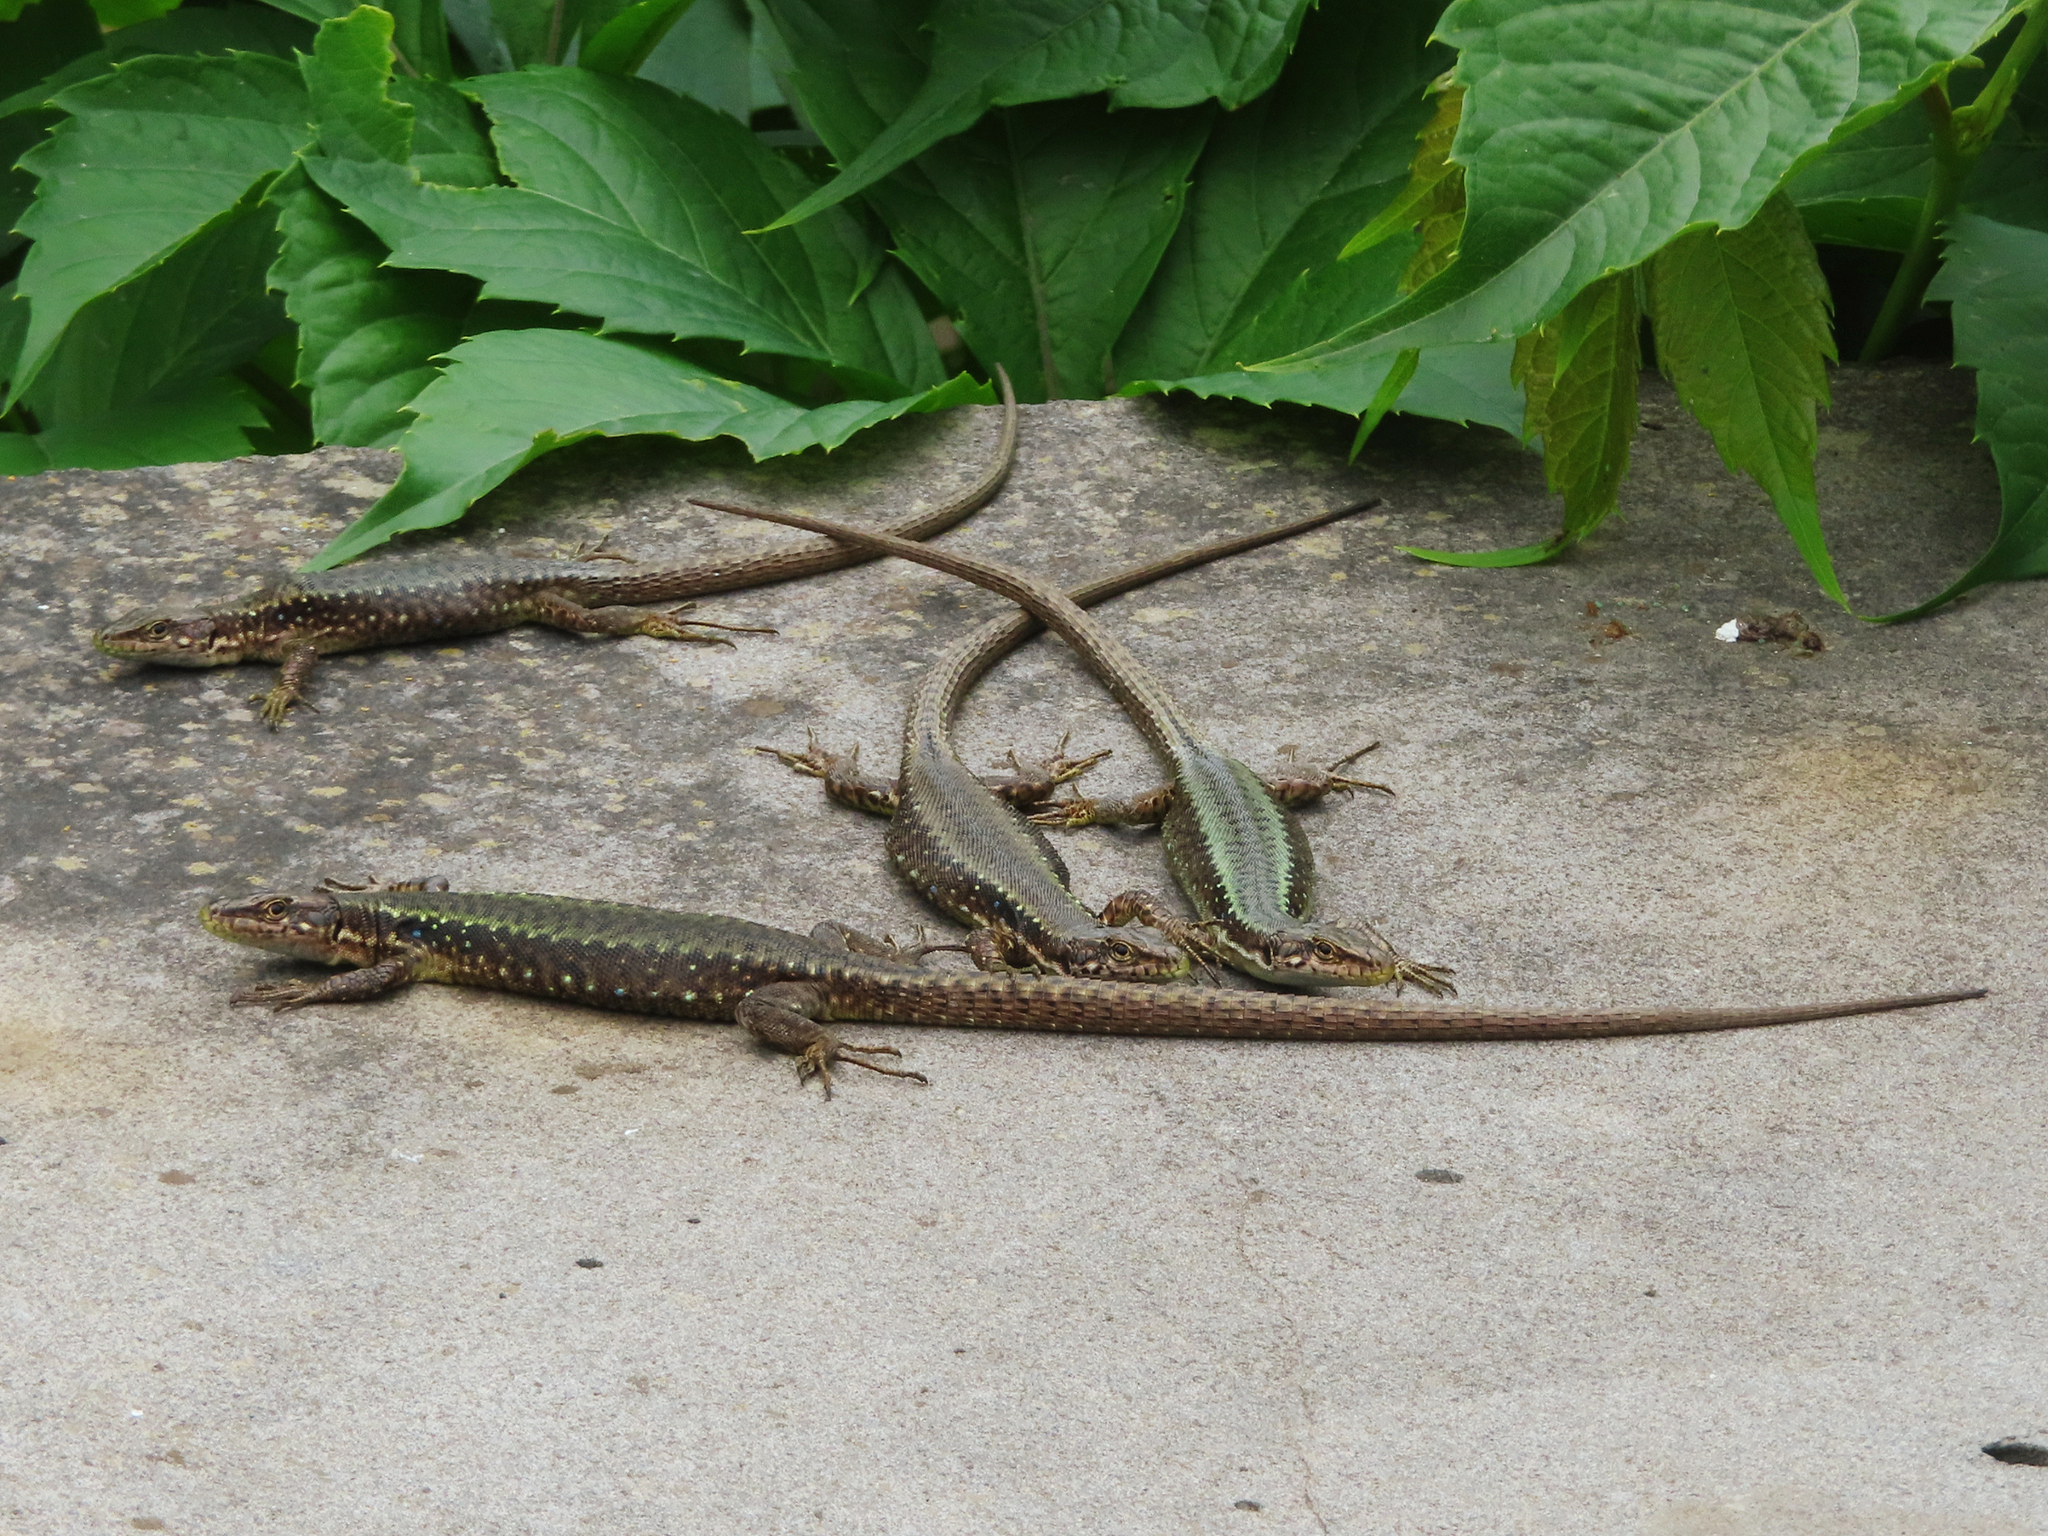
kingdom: Animalia
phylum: Chordata
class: Squamata
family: Lacertidae
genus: Darevskia
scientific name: Darevskia armeniaca
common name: Armenian lizard
